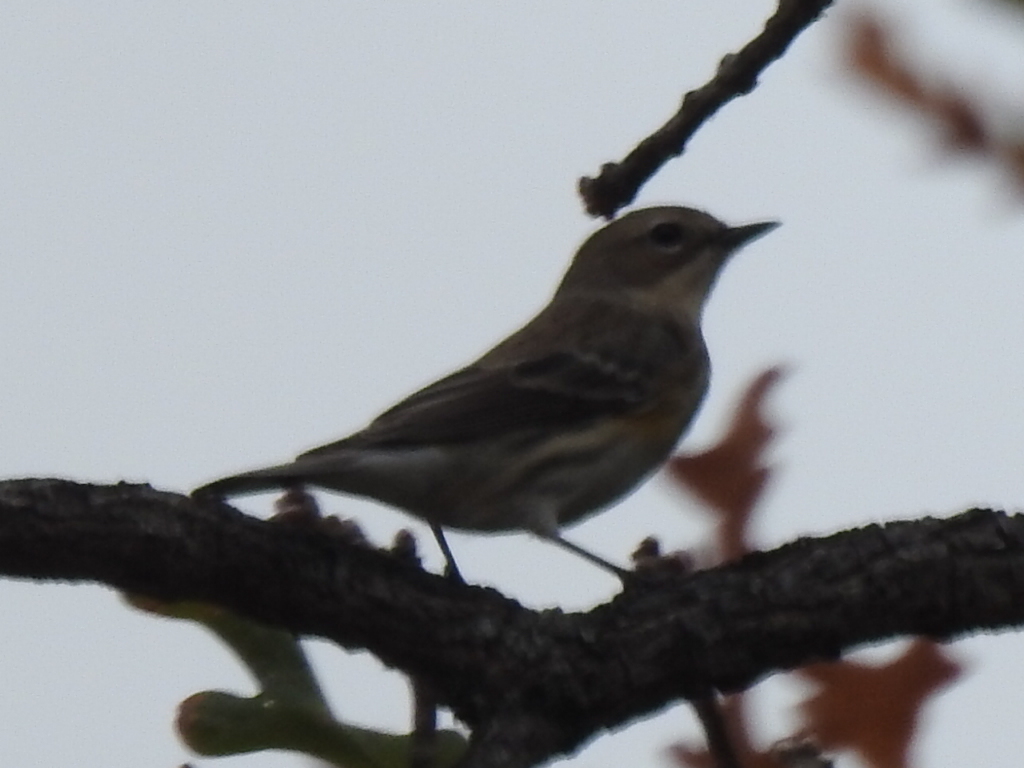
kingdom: Animalia
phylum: Chordata
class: Aves
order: Passeriformes
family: Parulidae
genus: Setophaga
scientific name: Setophaga coronata
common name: Myrtle warbler
